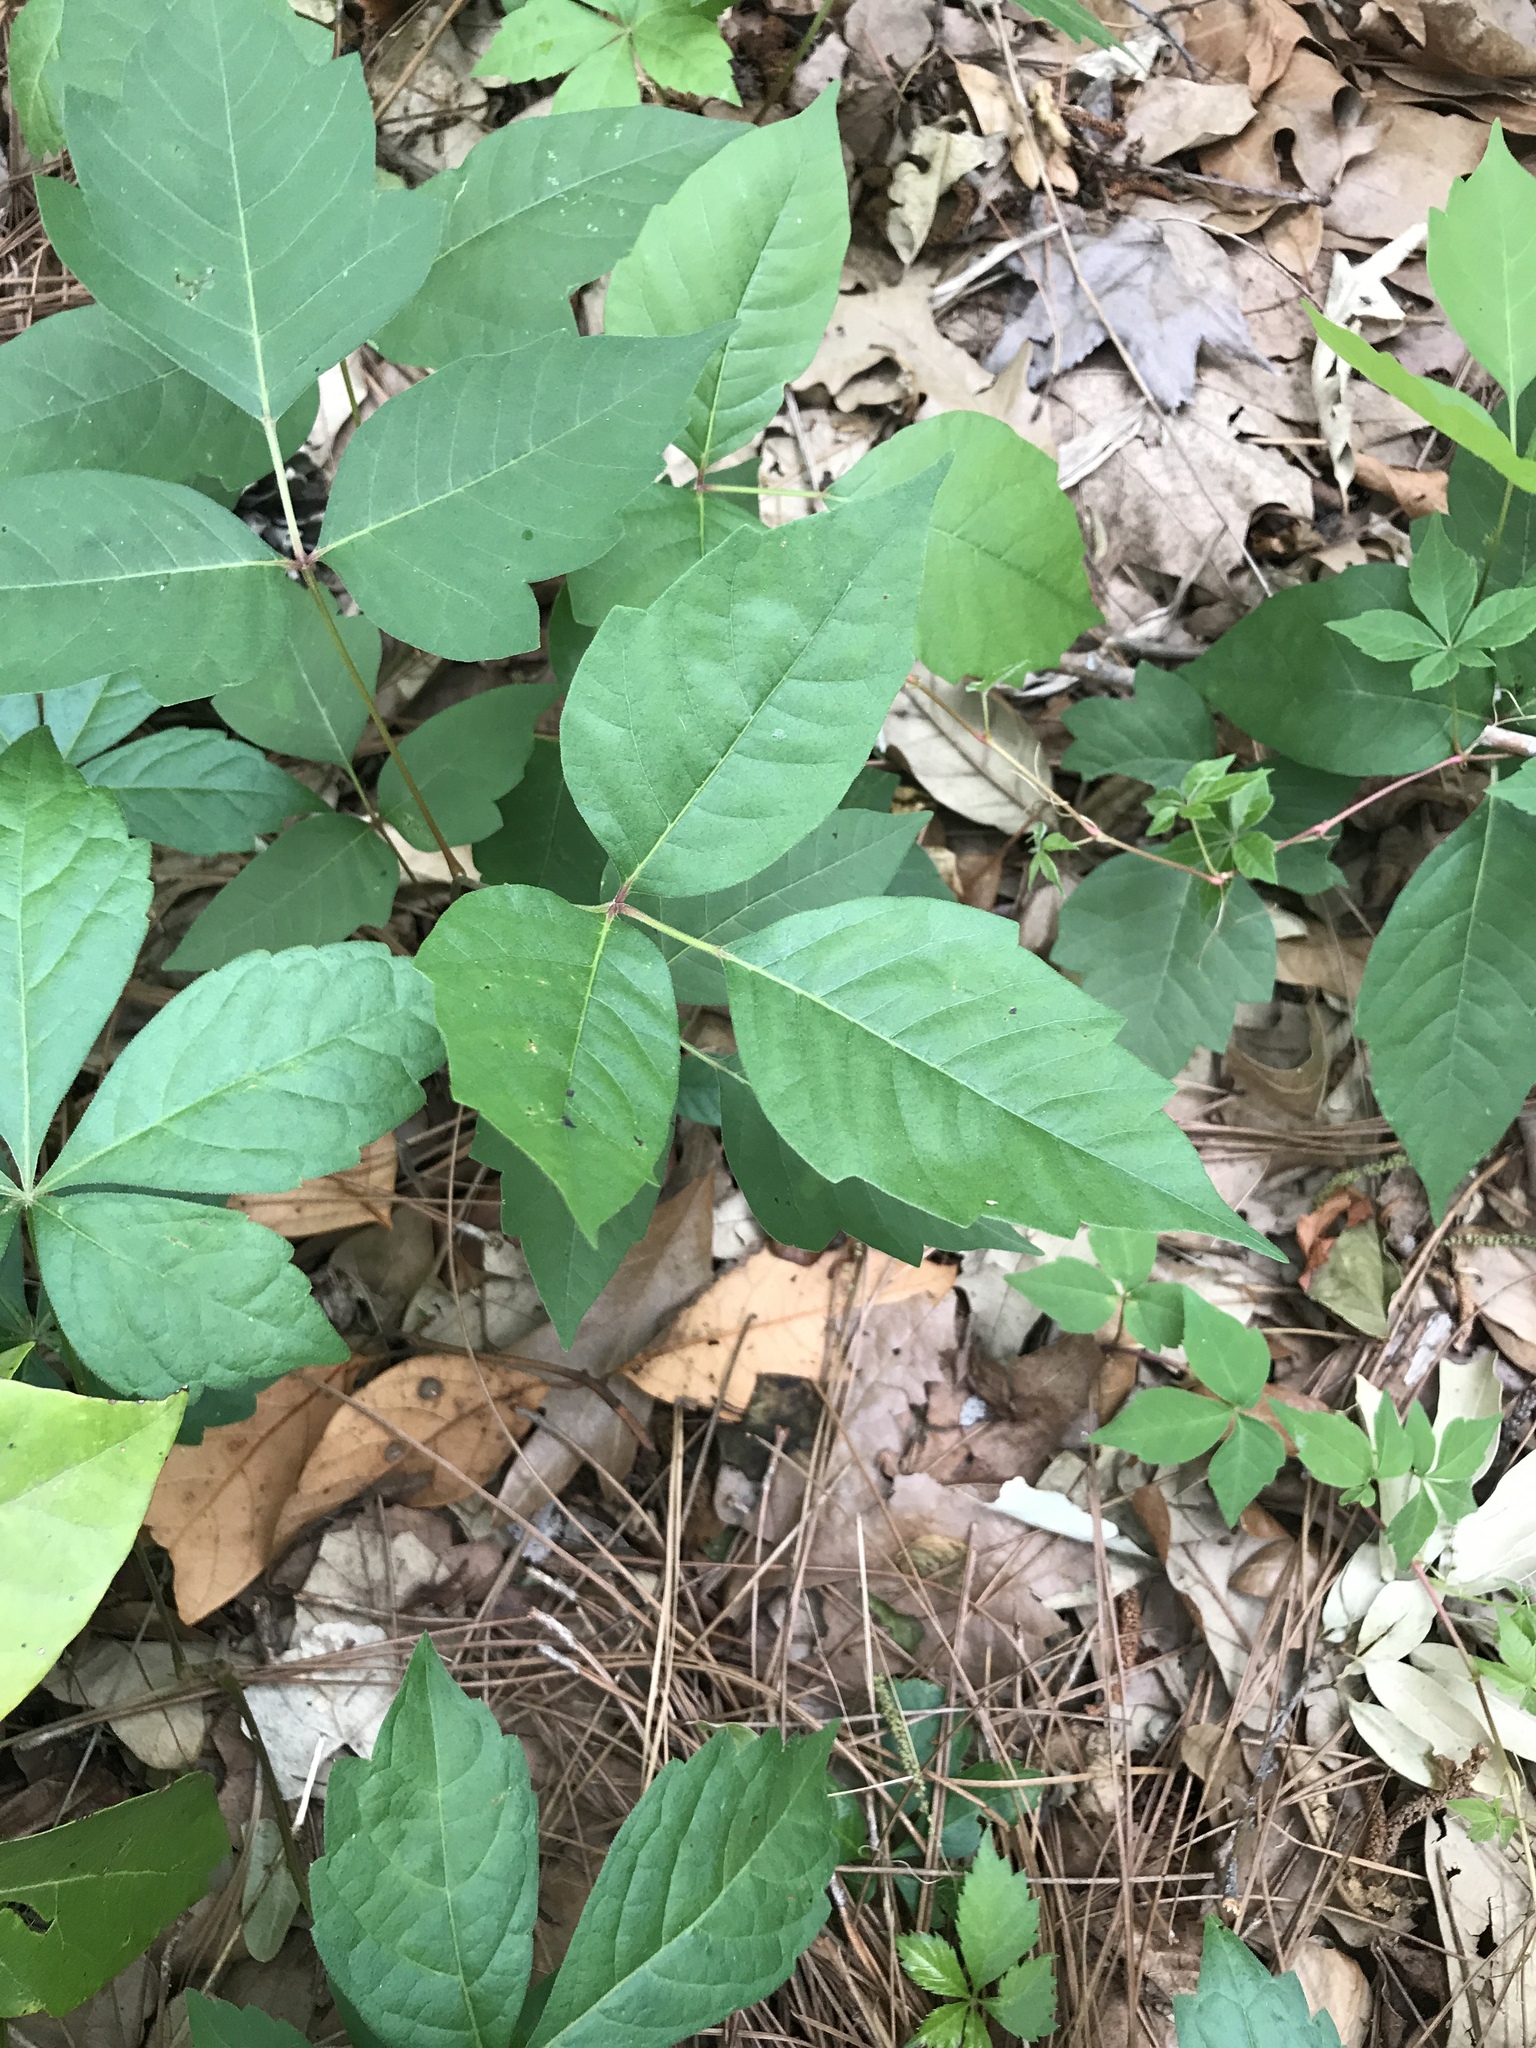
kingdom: Plantae
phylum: Tracheophyta
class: Magnoliopsida
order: Sapindales
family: Anacardiaceae
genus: Toxicodendron
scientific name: Toxicodendron radicans
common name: Poison ivy
